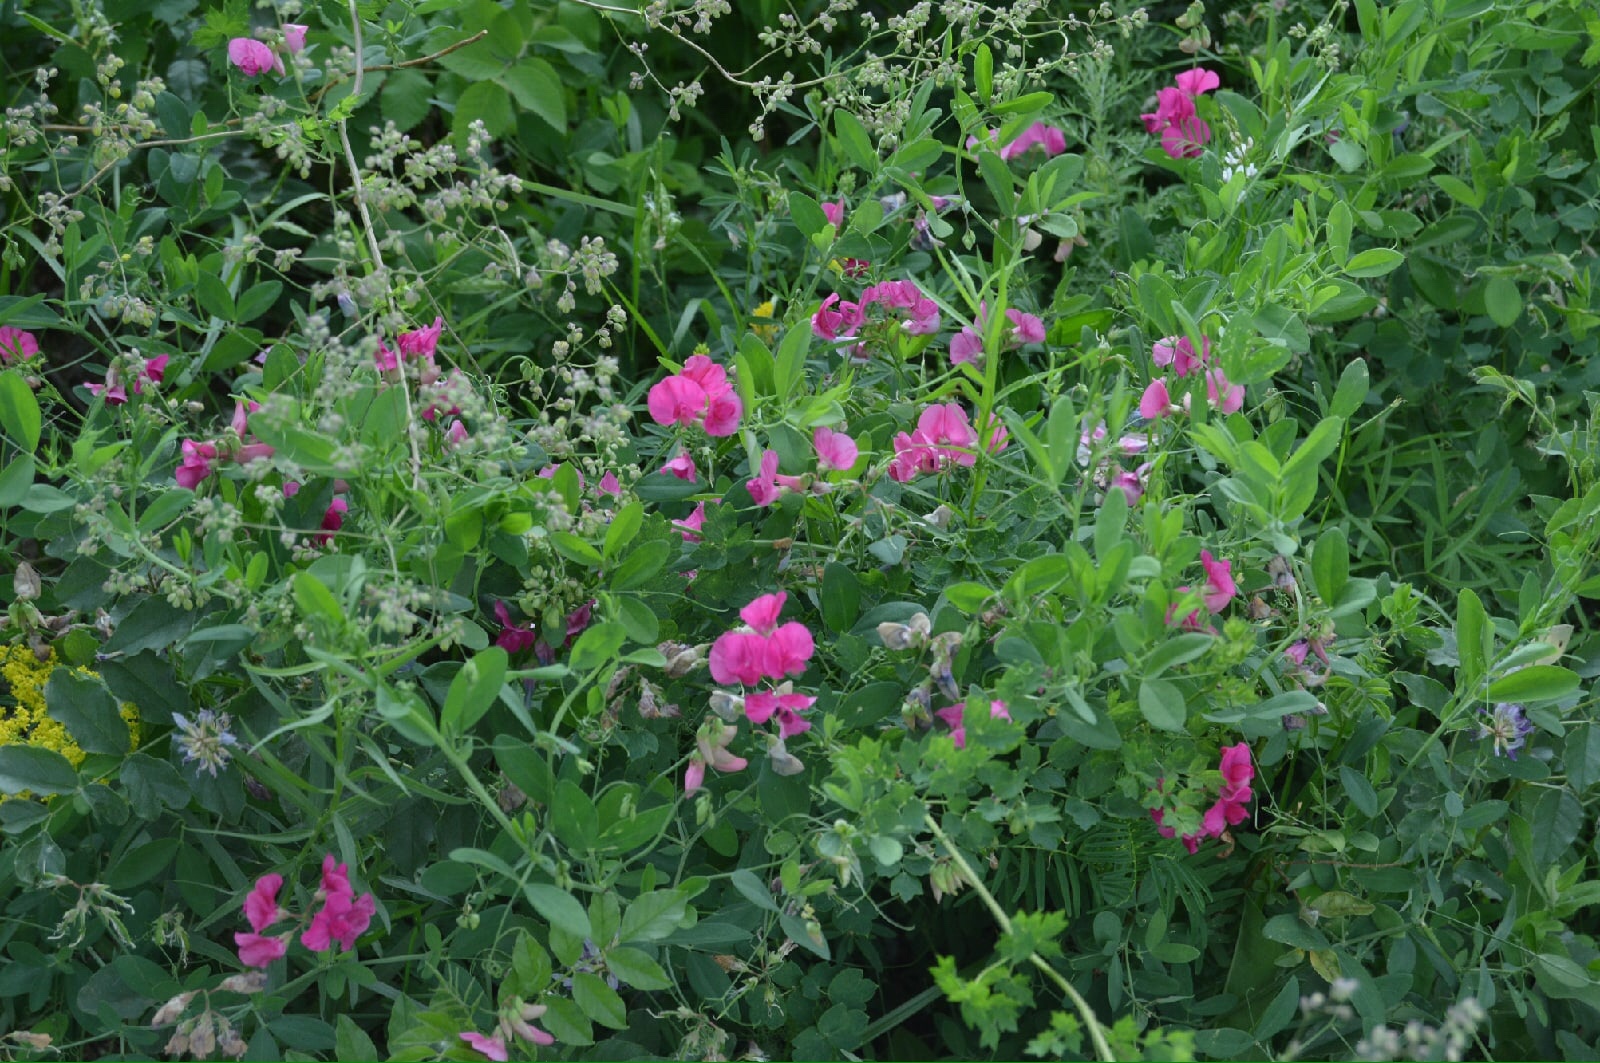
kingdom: Plantae
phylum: Tracheophyta
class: Magnoliopsida
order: Fabales
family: Fabaceae
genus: Lathyrus
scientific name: Lathyrus tuberosus
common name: Tuberous pea
